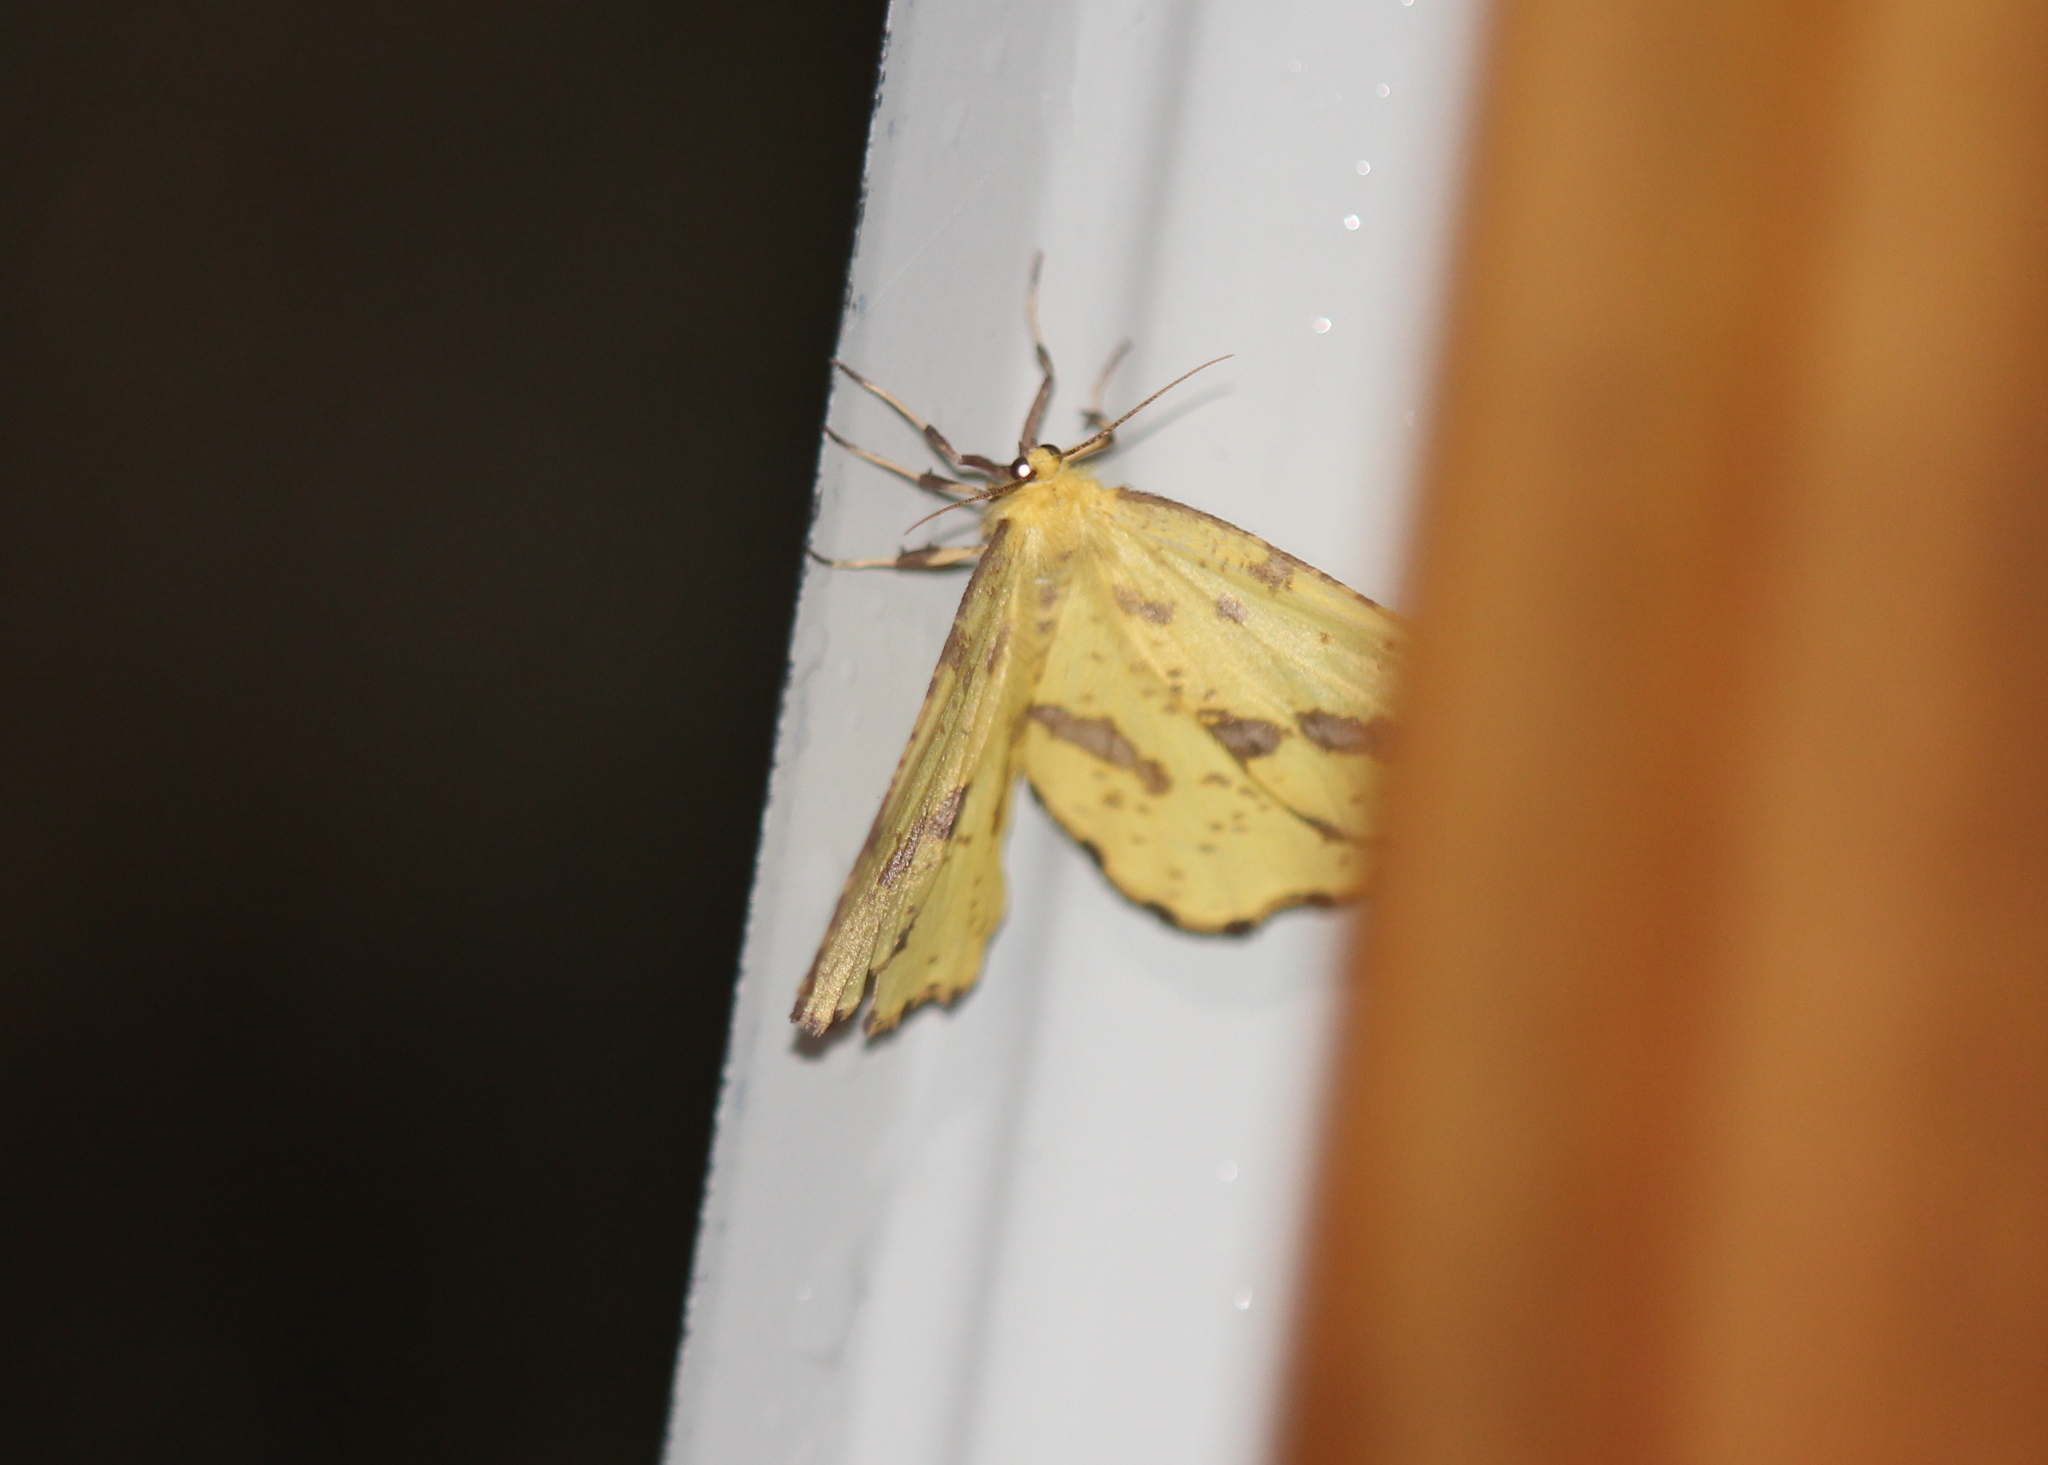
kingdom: Animalia
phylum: Arthropoda
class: Insecta
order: Lepidoptera
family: Geometridae
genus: Xanthotype
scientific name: Xanthotype
